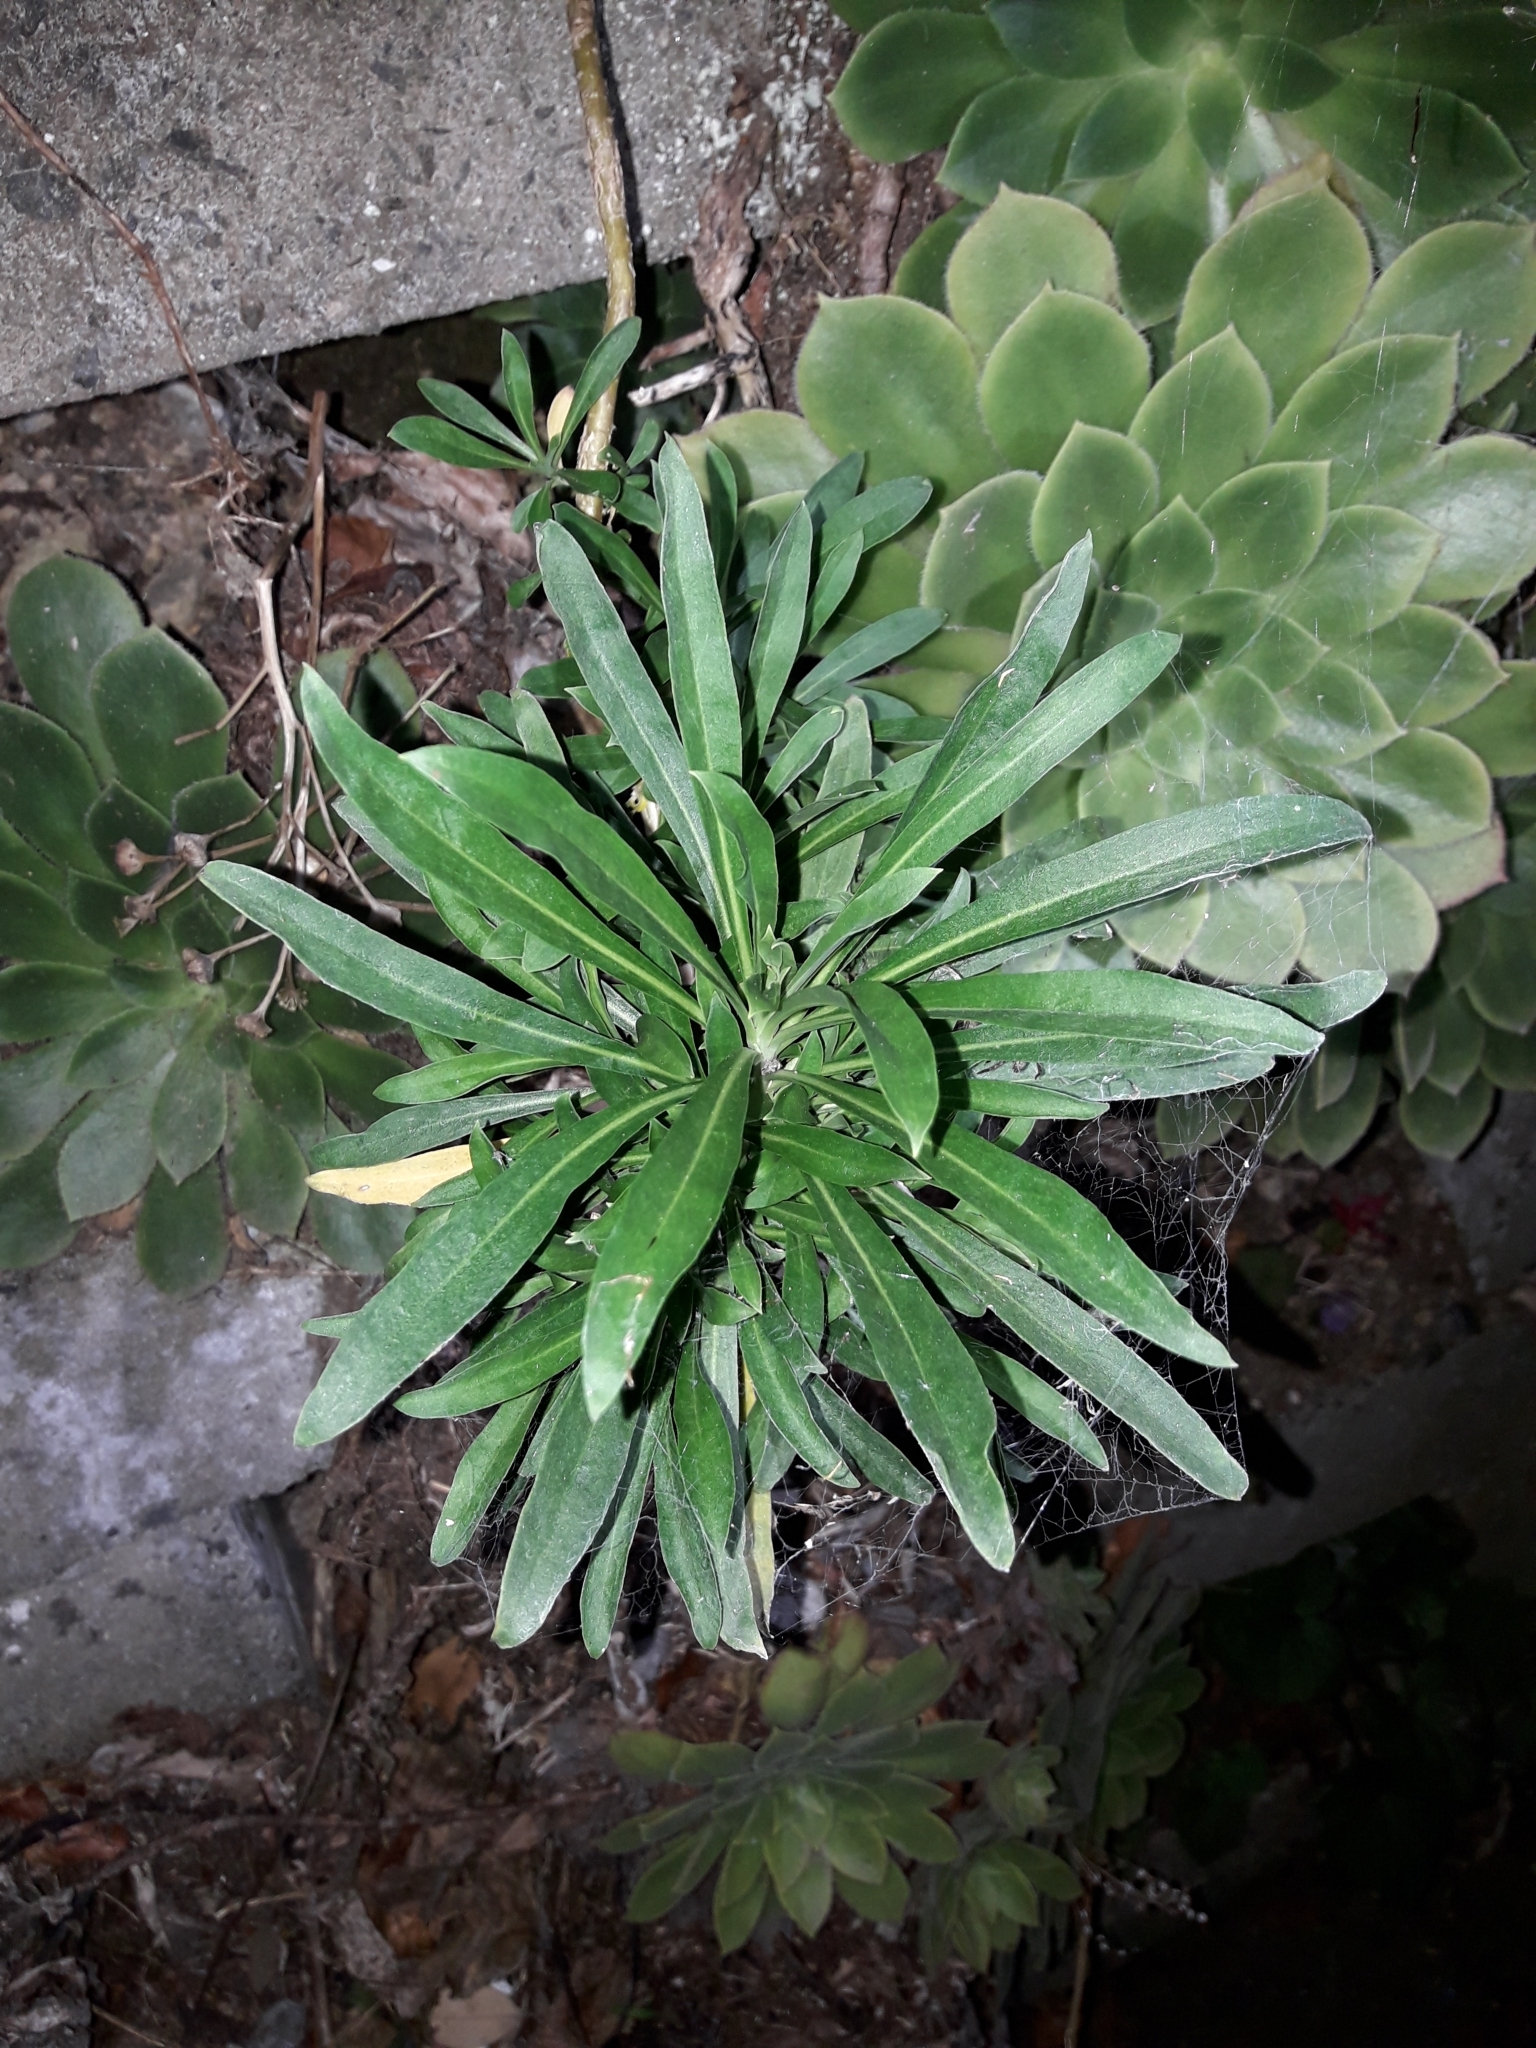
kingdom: Plantae
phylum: Tracheophyta
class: Magnoliopsida
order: Brassicales
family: Brassicaceae
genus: Erysimum
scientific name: Erysimum cheiri
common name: Wallflower
